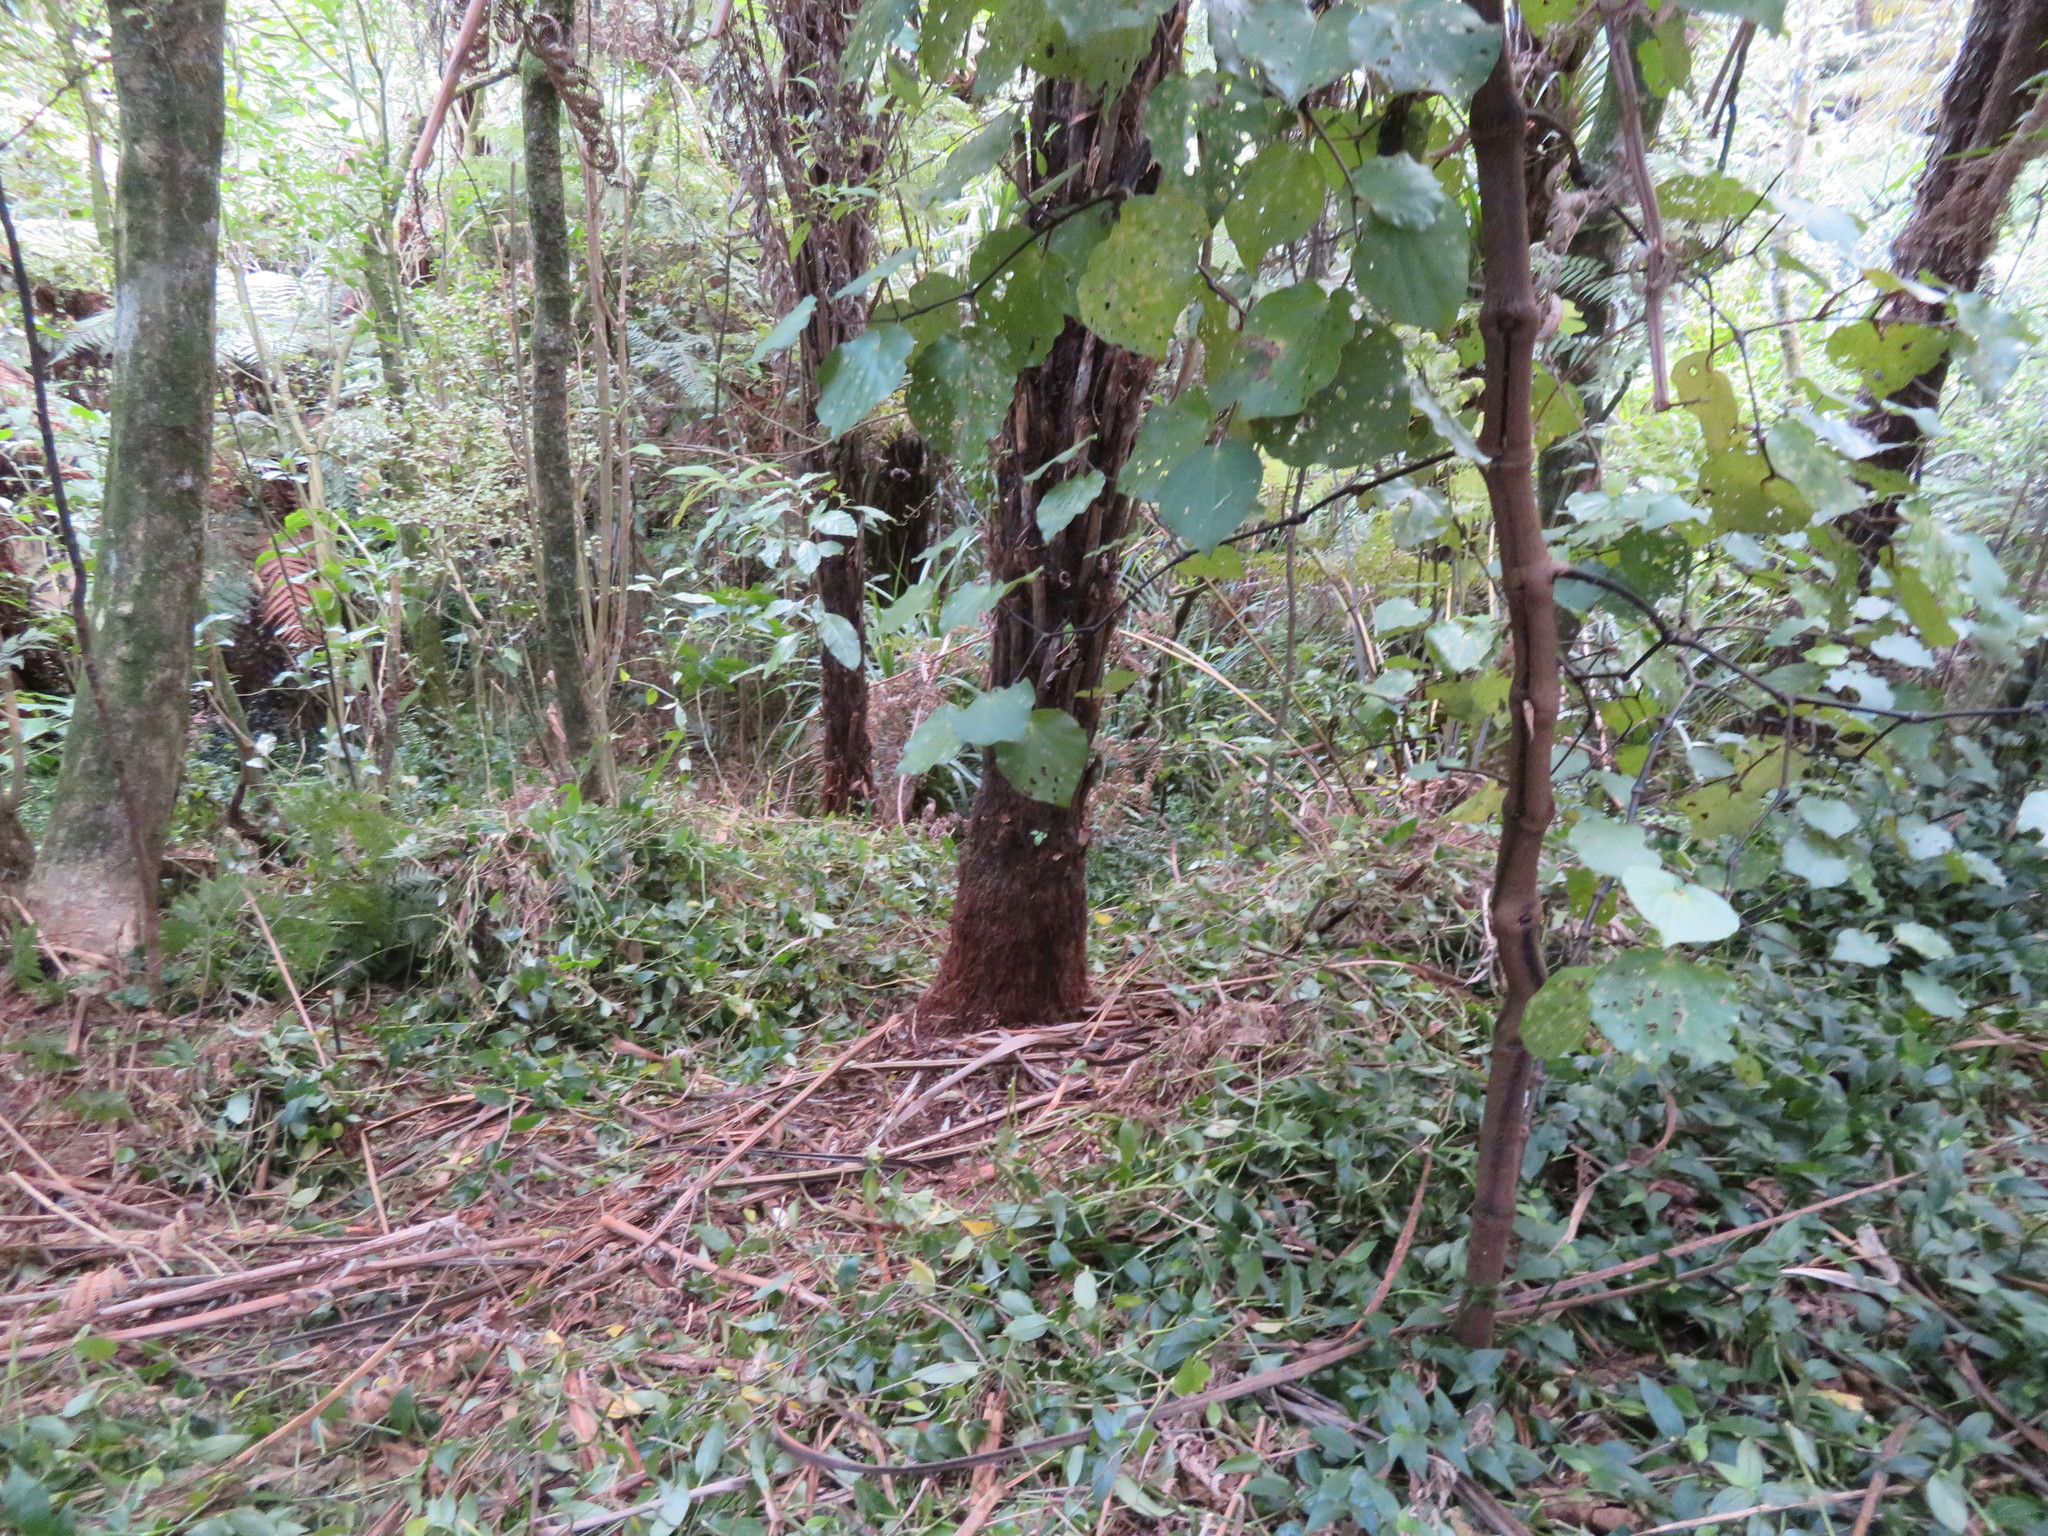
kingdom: Plantae
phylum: Tracheophyta
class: Magnoliopsida
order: Piperales
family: Piperaceae
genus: Macropiper
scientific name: Macropiper excelsum
